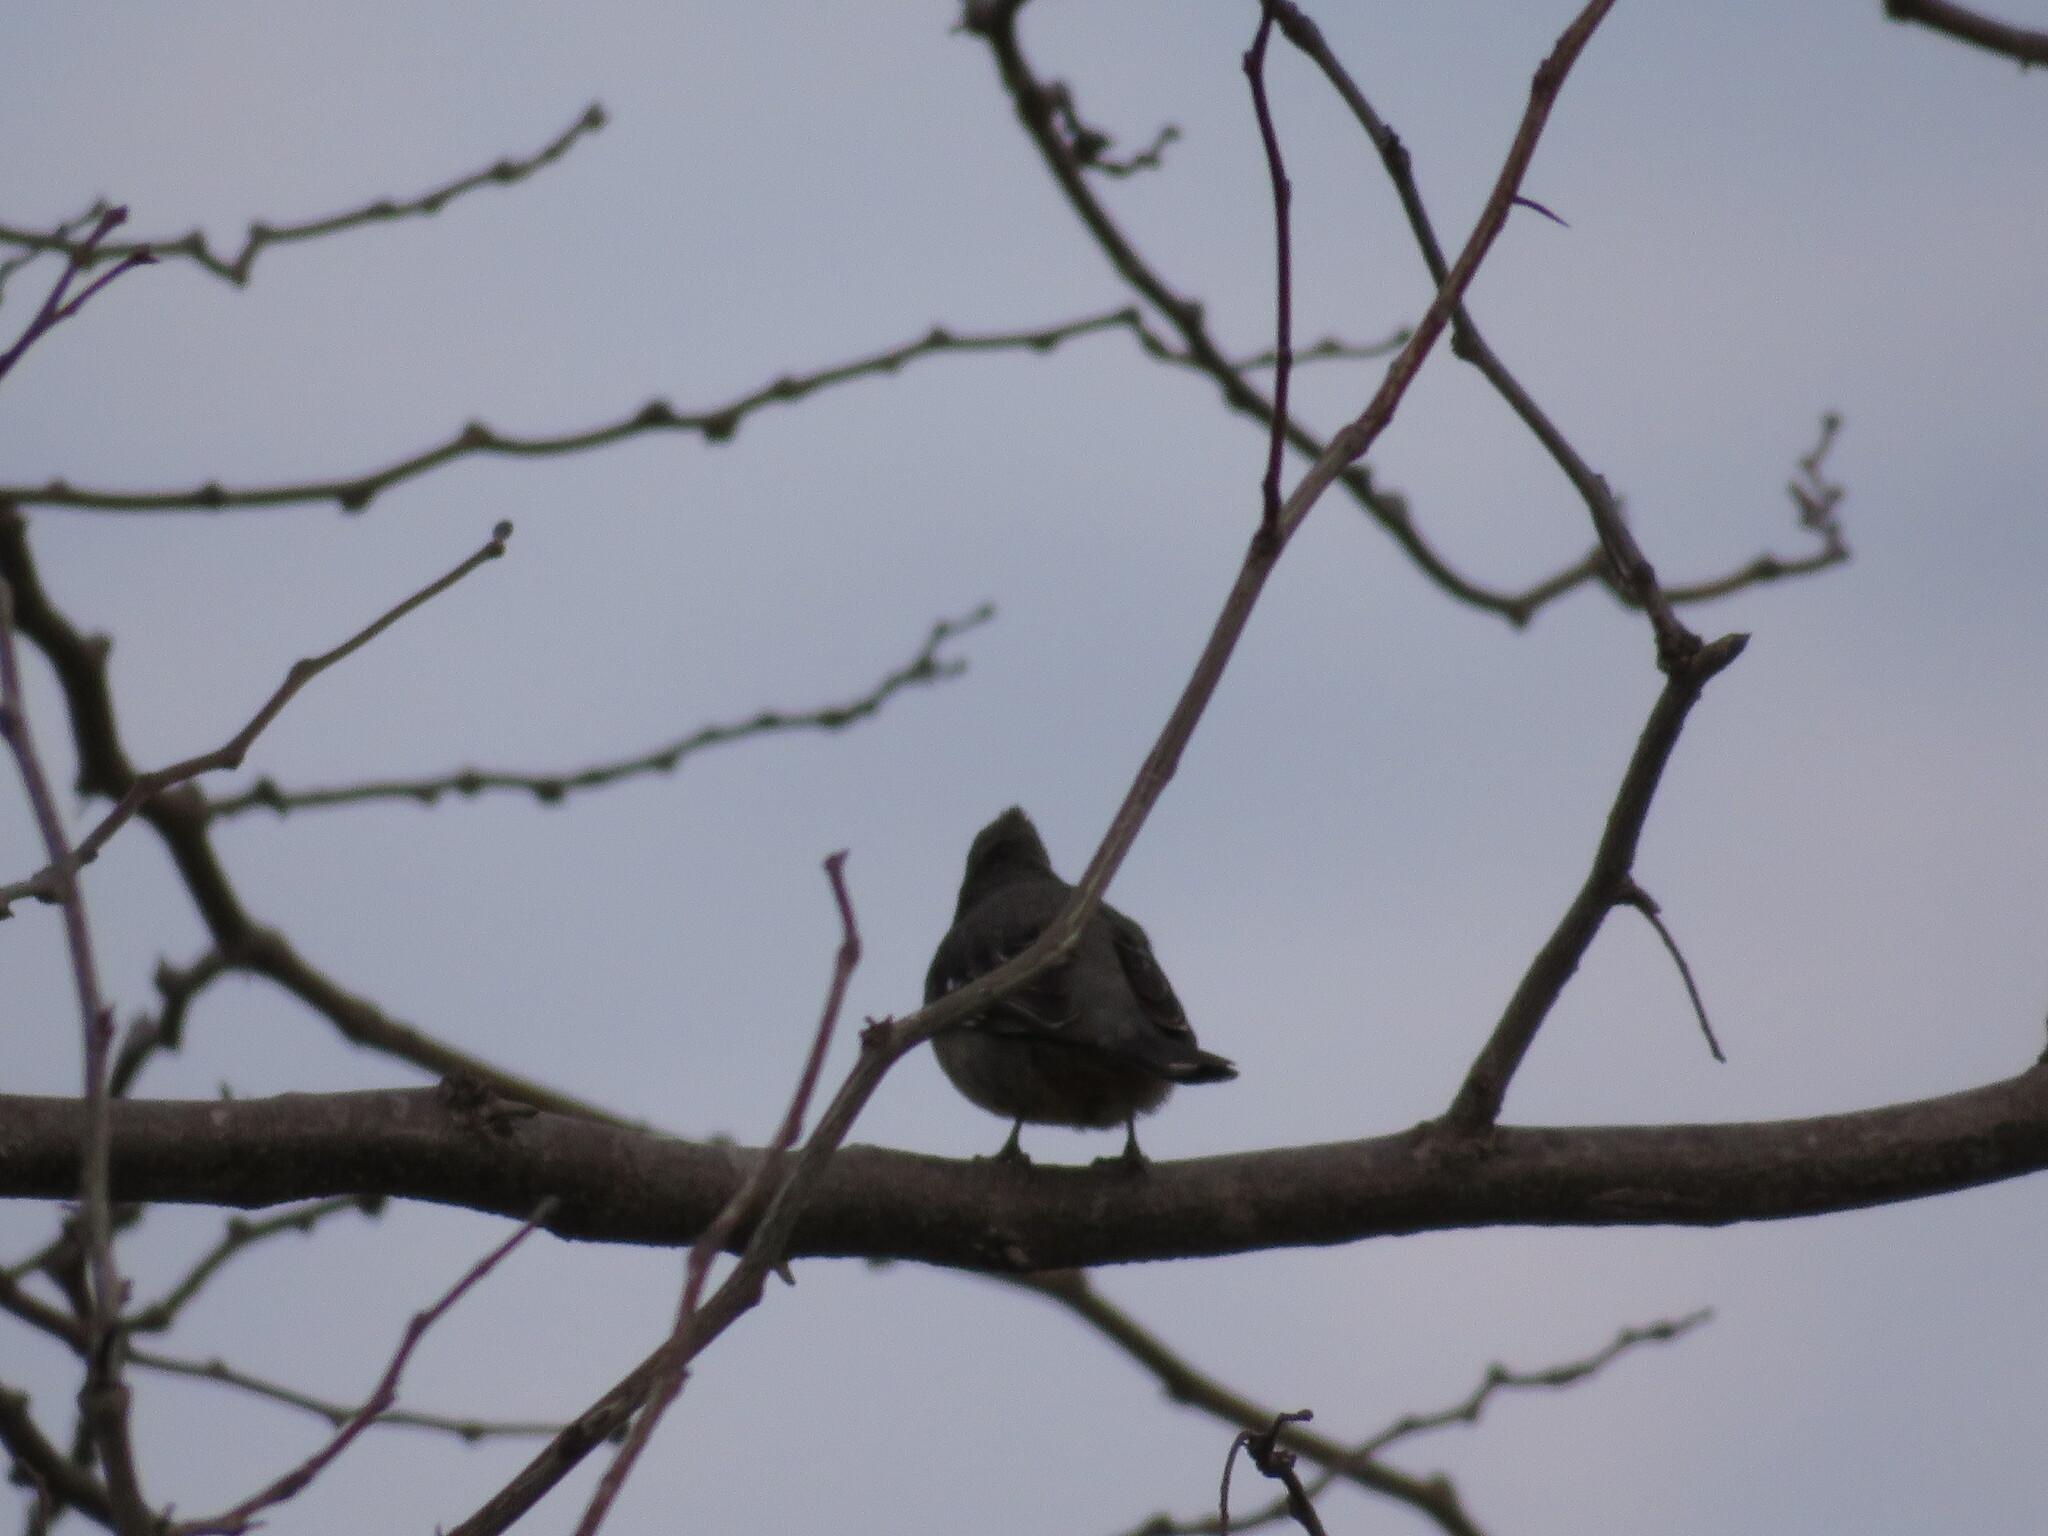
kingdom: Animalia
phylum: Chordata
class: Aves
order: Passeriformes
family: Cotingidae
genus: Phytotoma
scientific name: Phytotoma rutila
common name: White-tipped plantcutter
